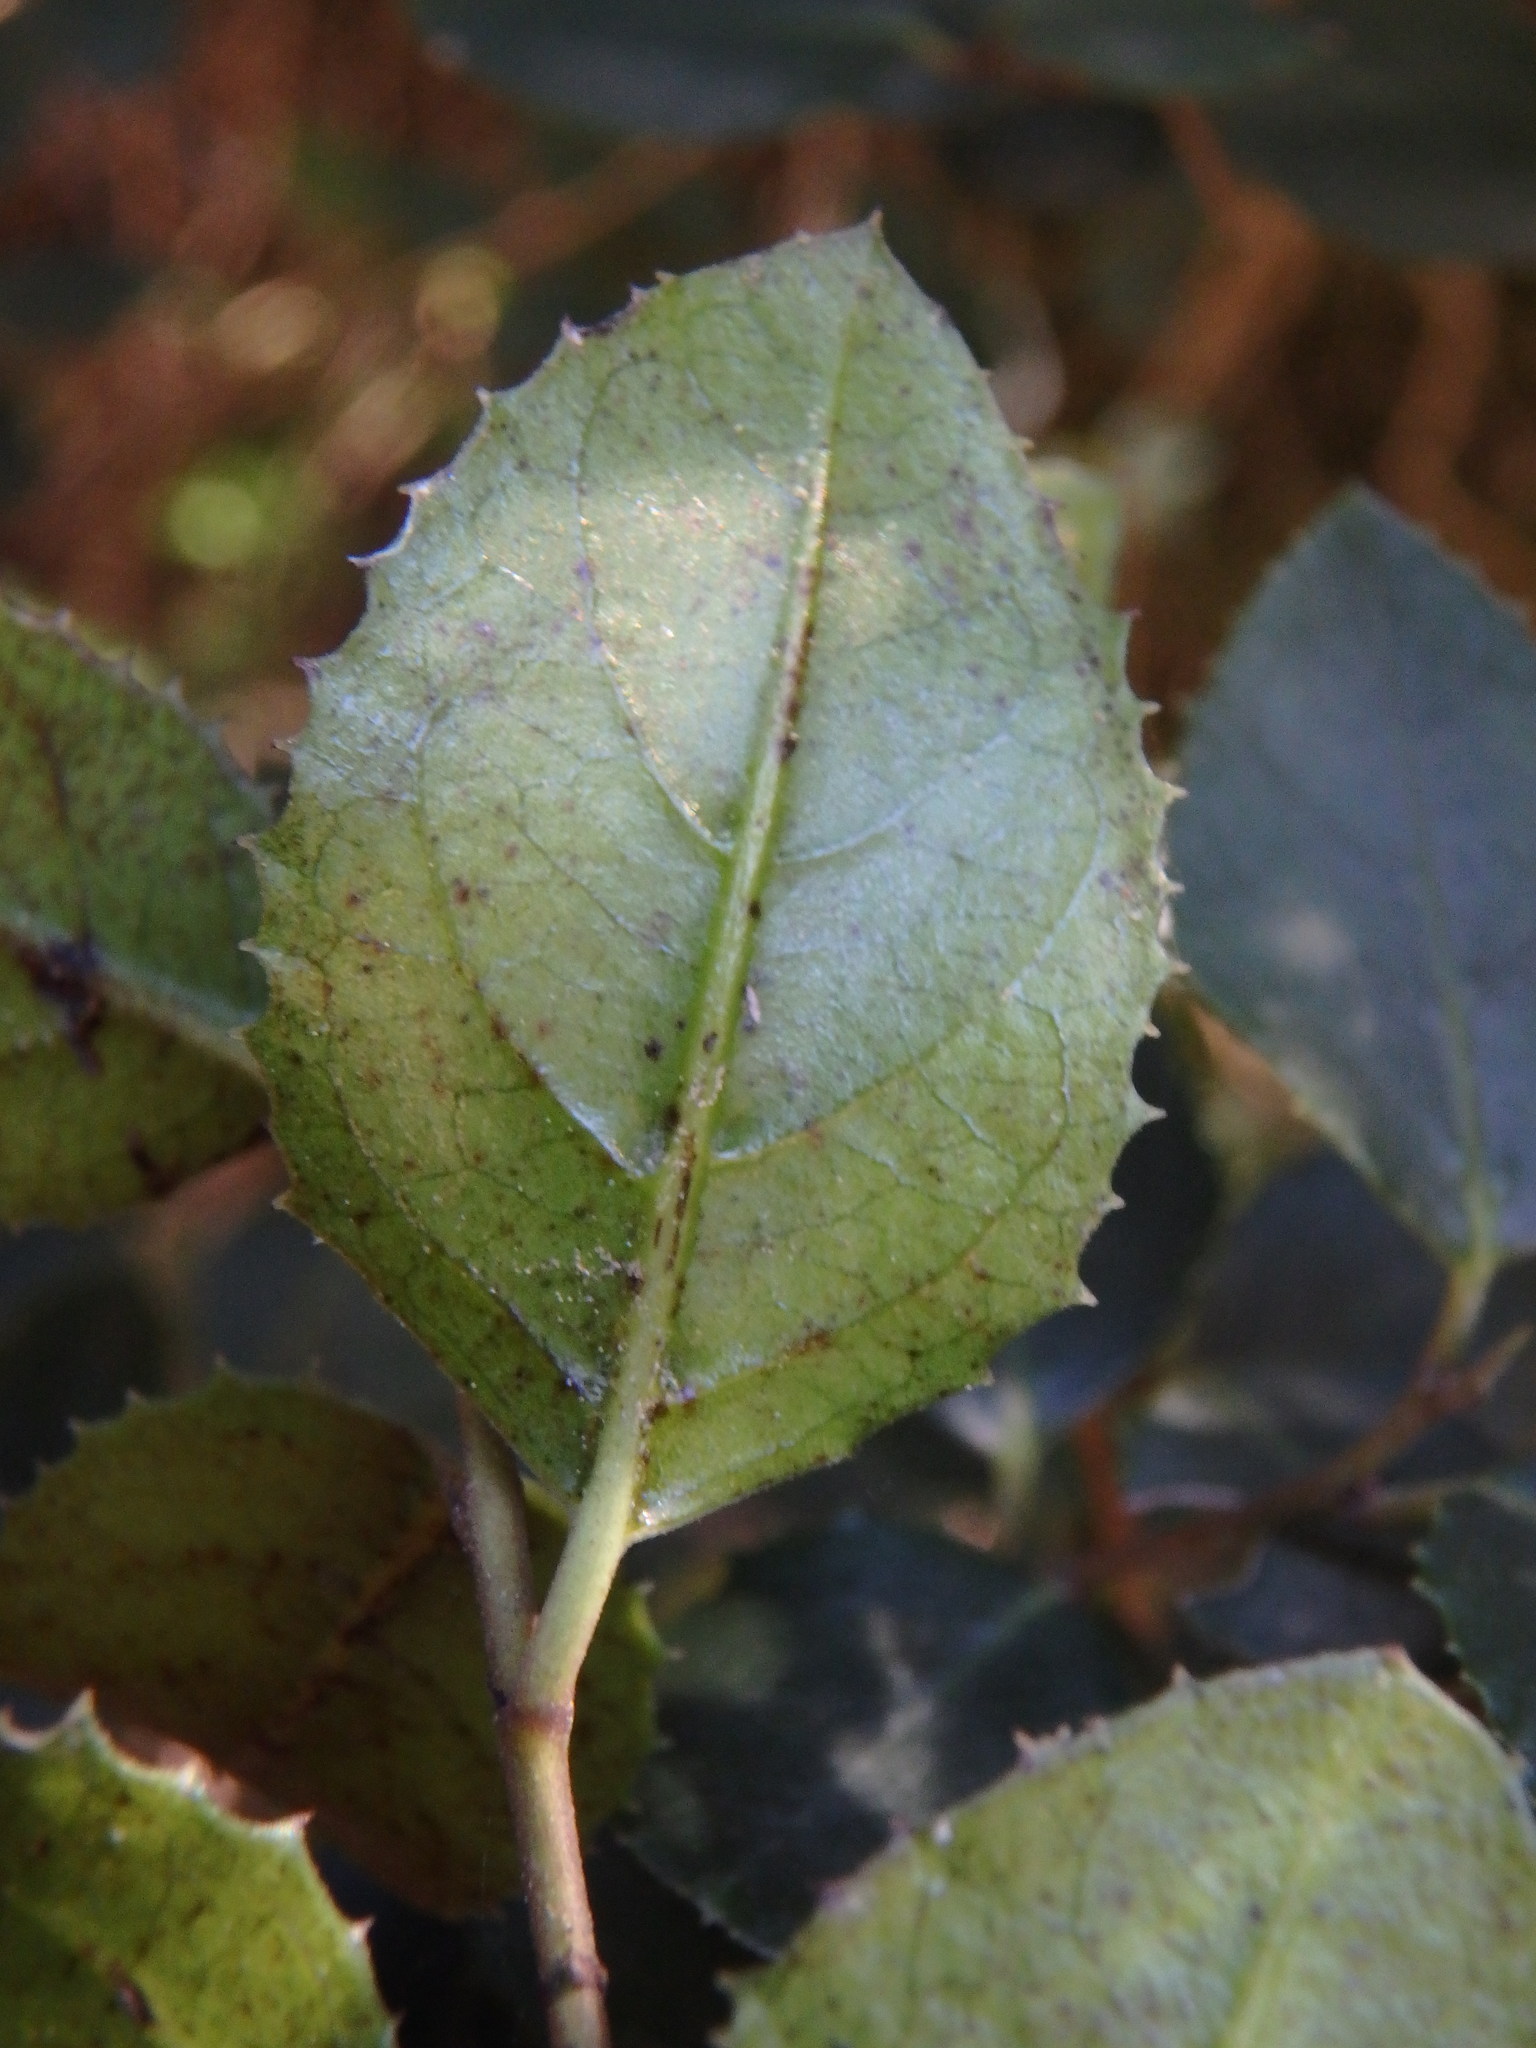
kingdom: Plantae
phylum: Tracheophyta
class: Magnoliopsida
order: Rosales
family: Rhamnaceae
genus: Rhamnus
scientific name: Rhamnus ludovici-salvatoris
